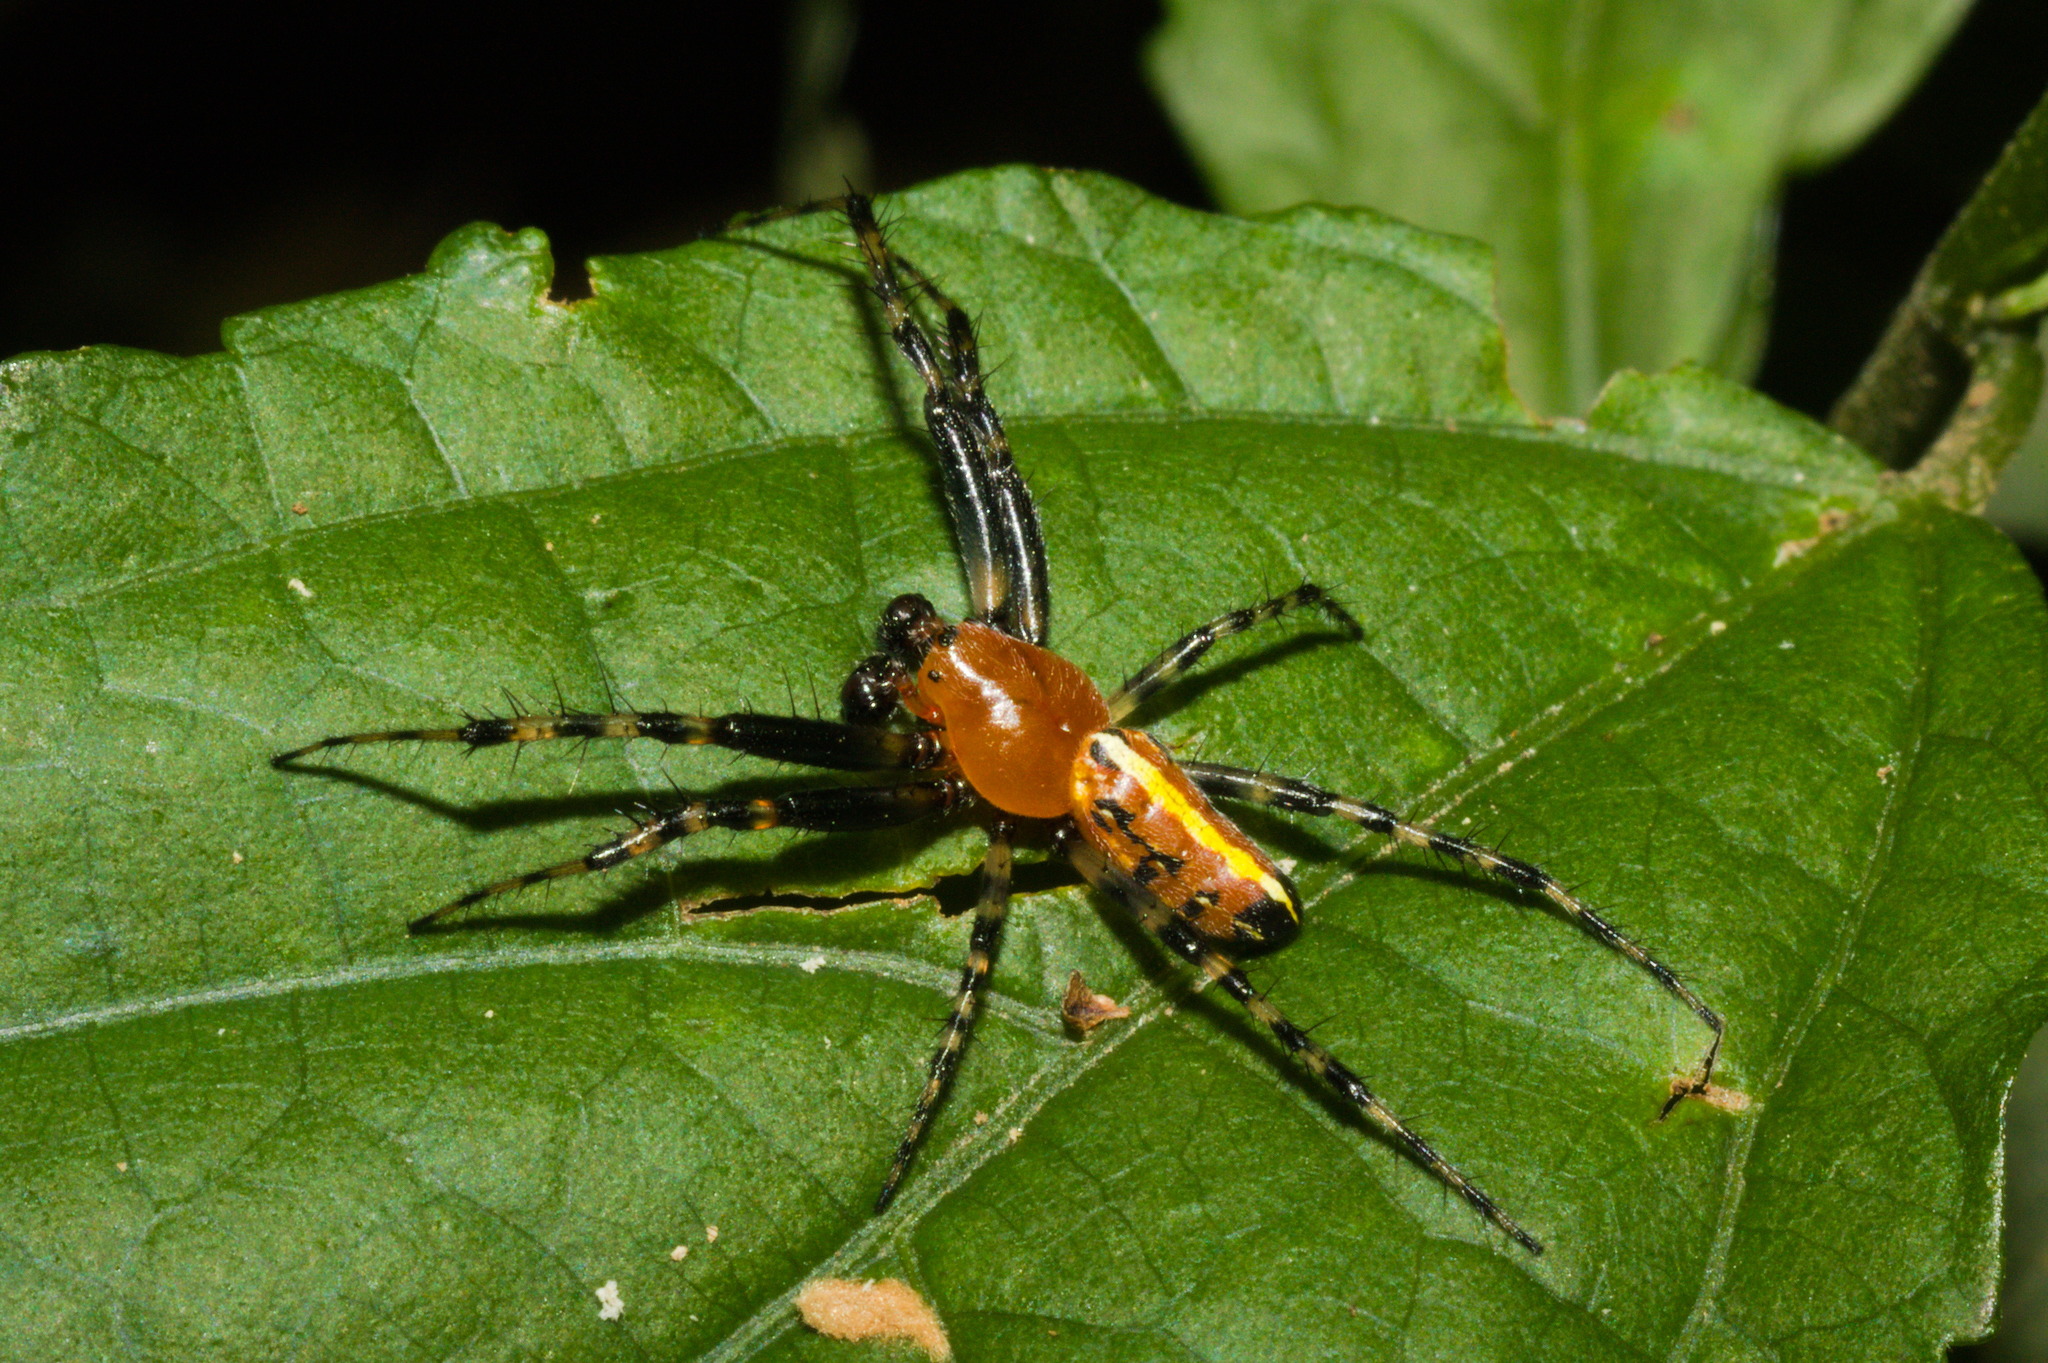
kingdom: Animalia
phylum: Arthropoda
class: Arachnida
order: Araneae
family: Araneidae
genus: Alpaida
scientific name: Alpaida grayi
